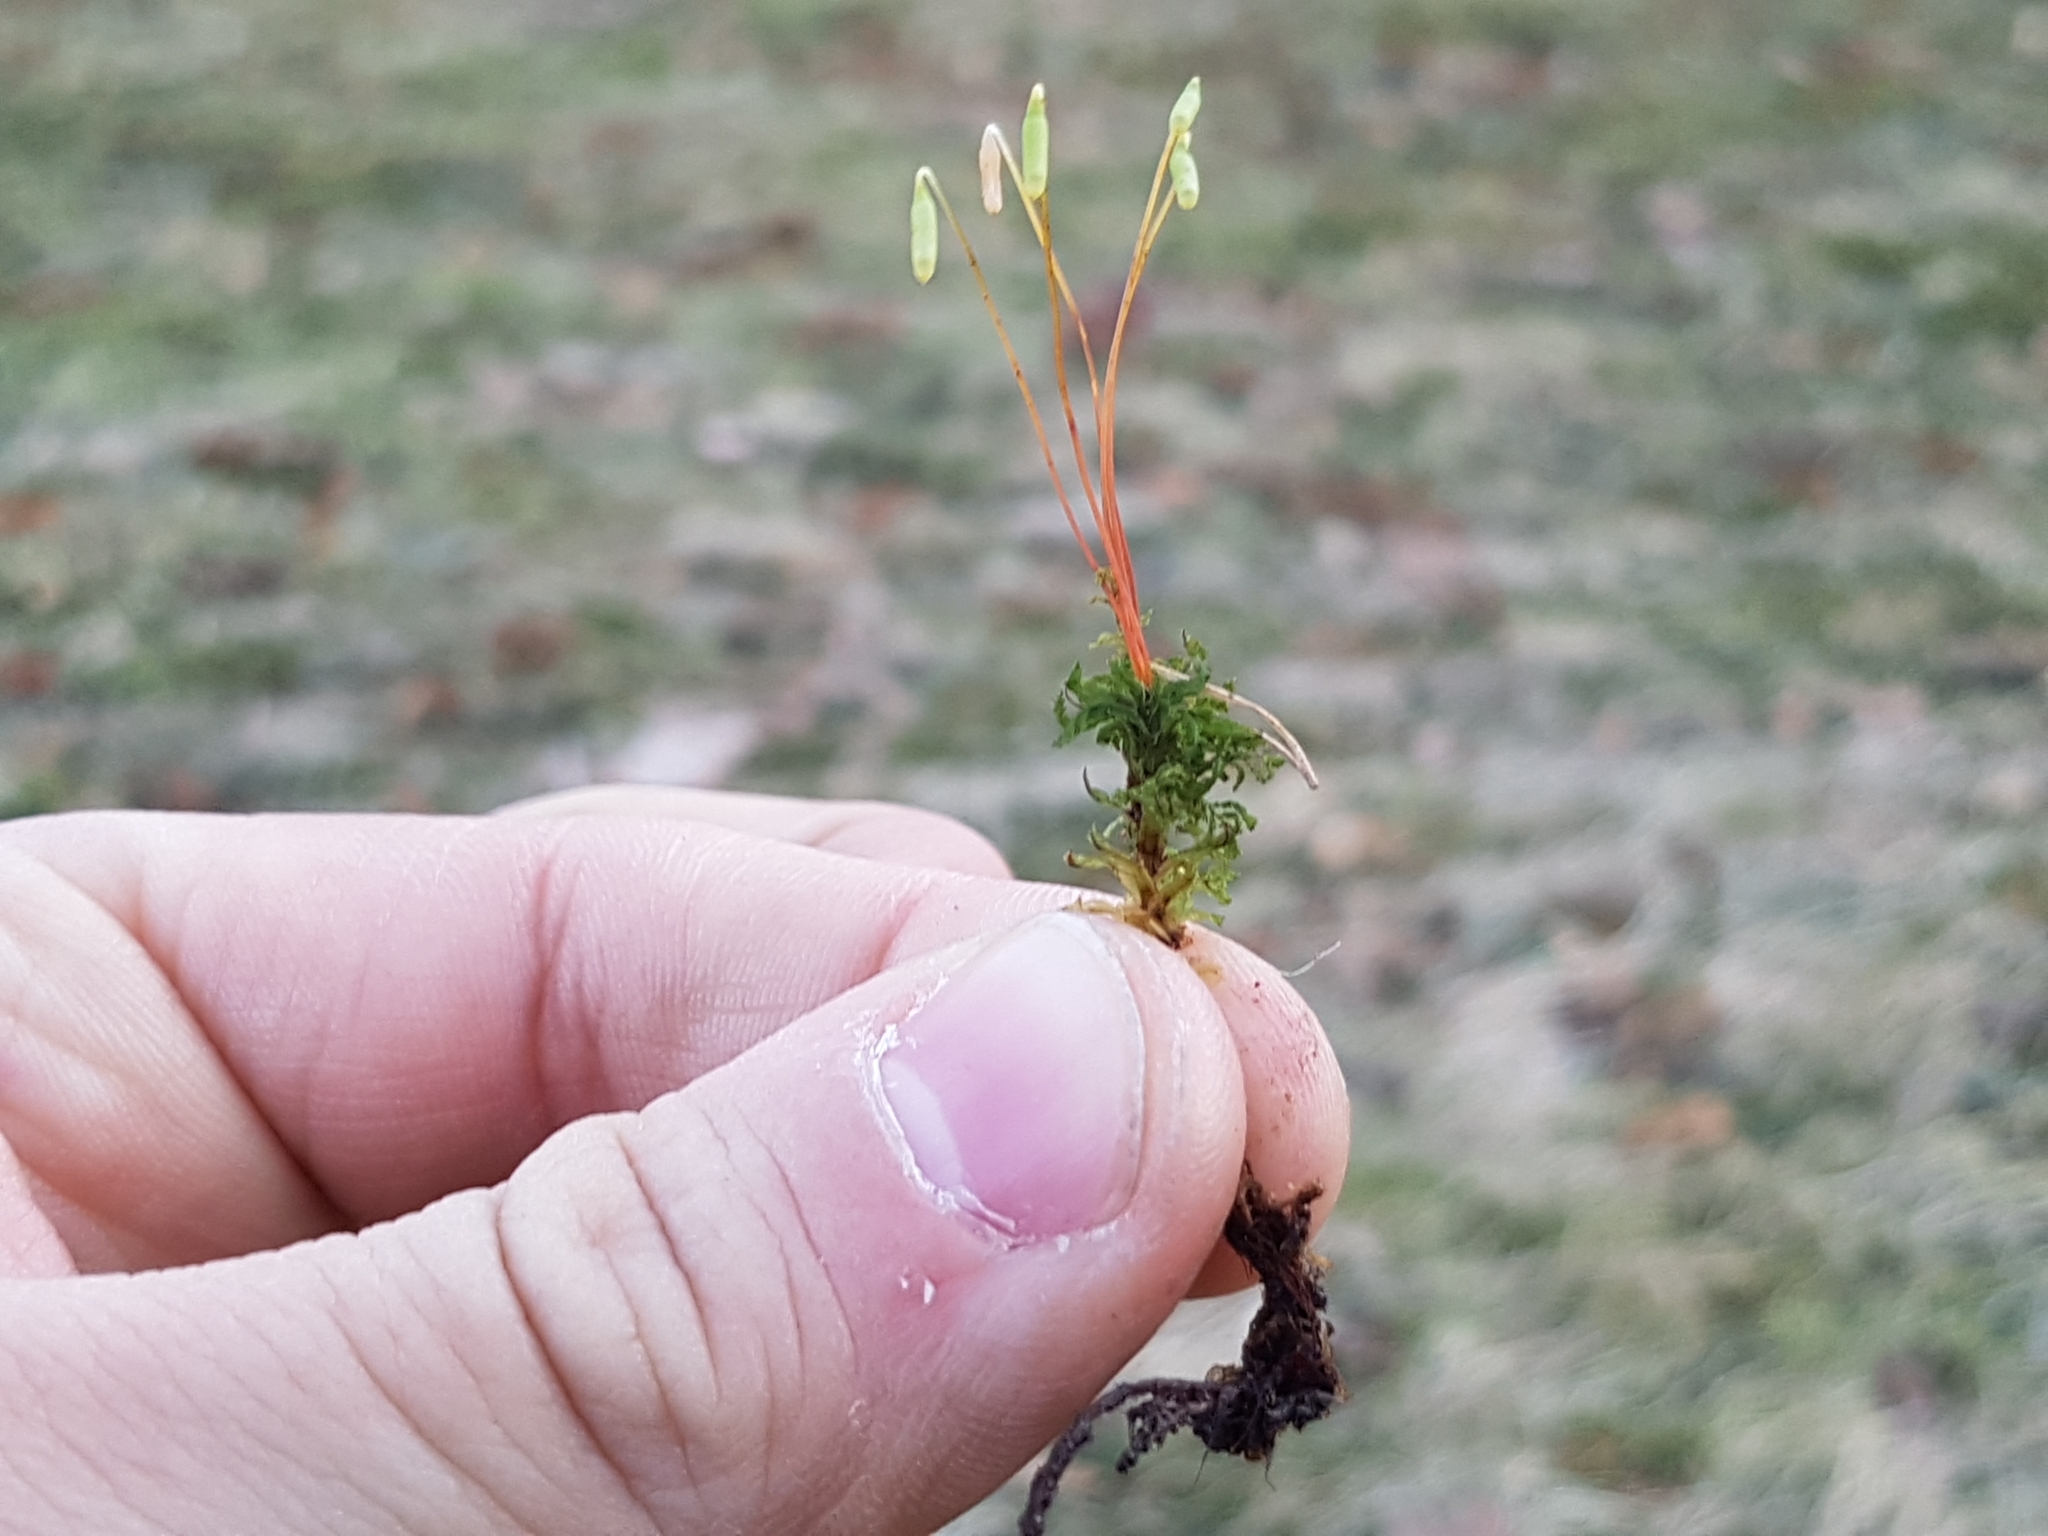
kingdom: Plantae
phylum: Bryophyta
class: Bryopsida
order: Bryales
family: Mniaceae
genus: Plagiomnium
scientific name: Plagiomnium undulatum
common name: Hart's-tongue thyme-moss
